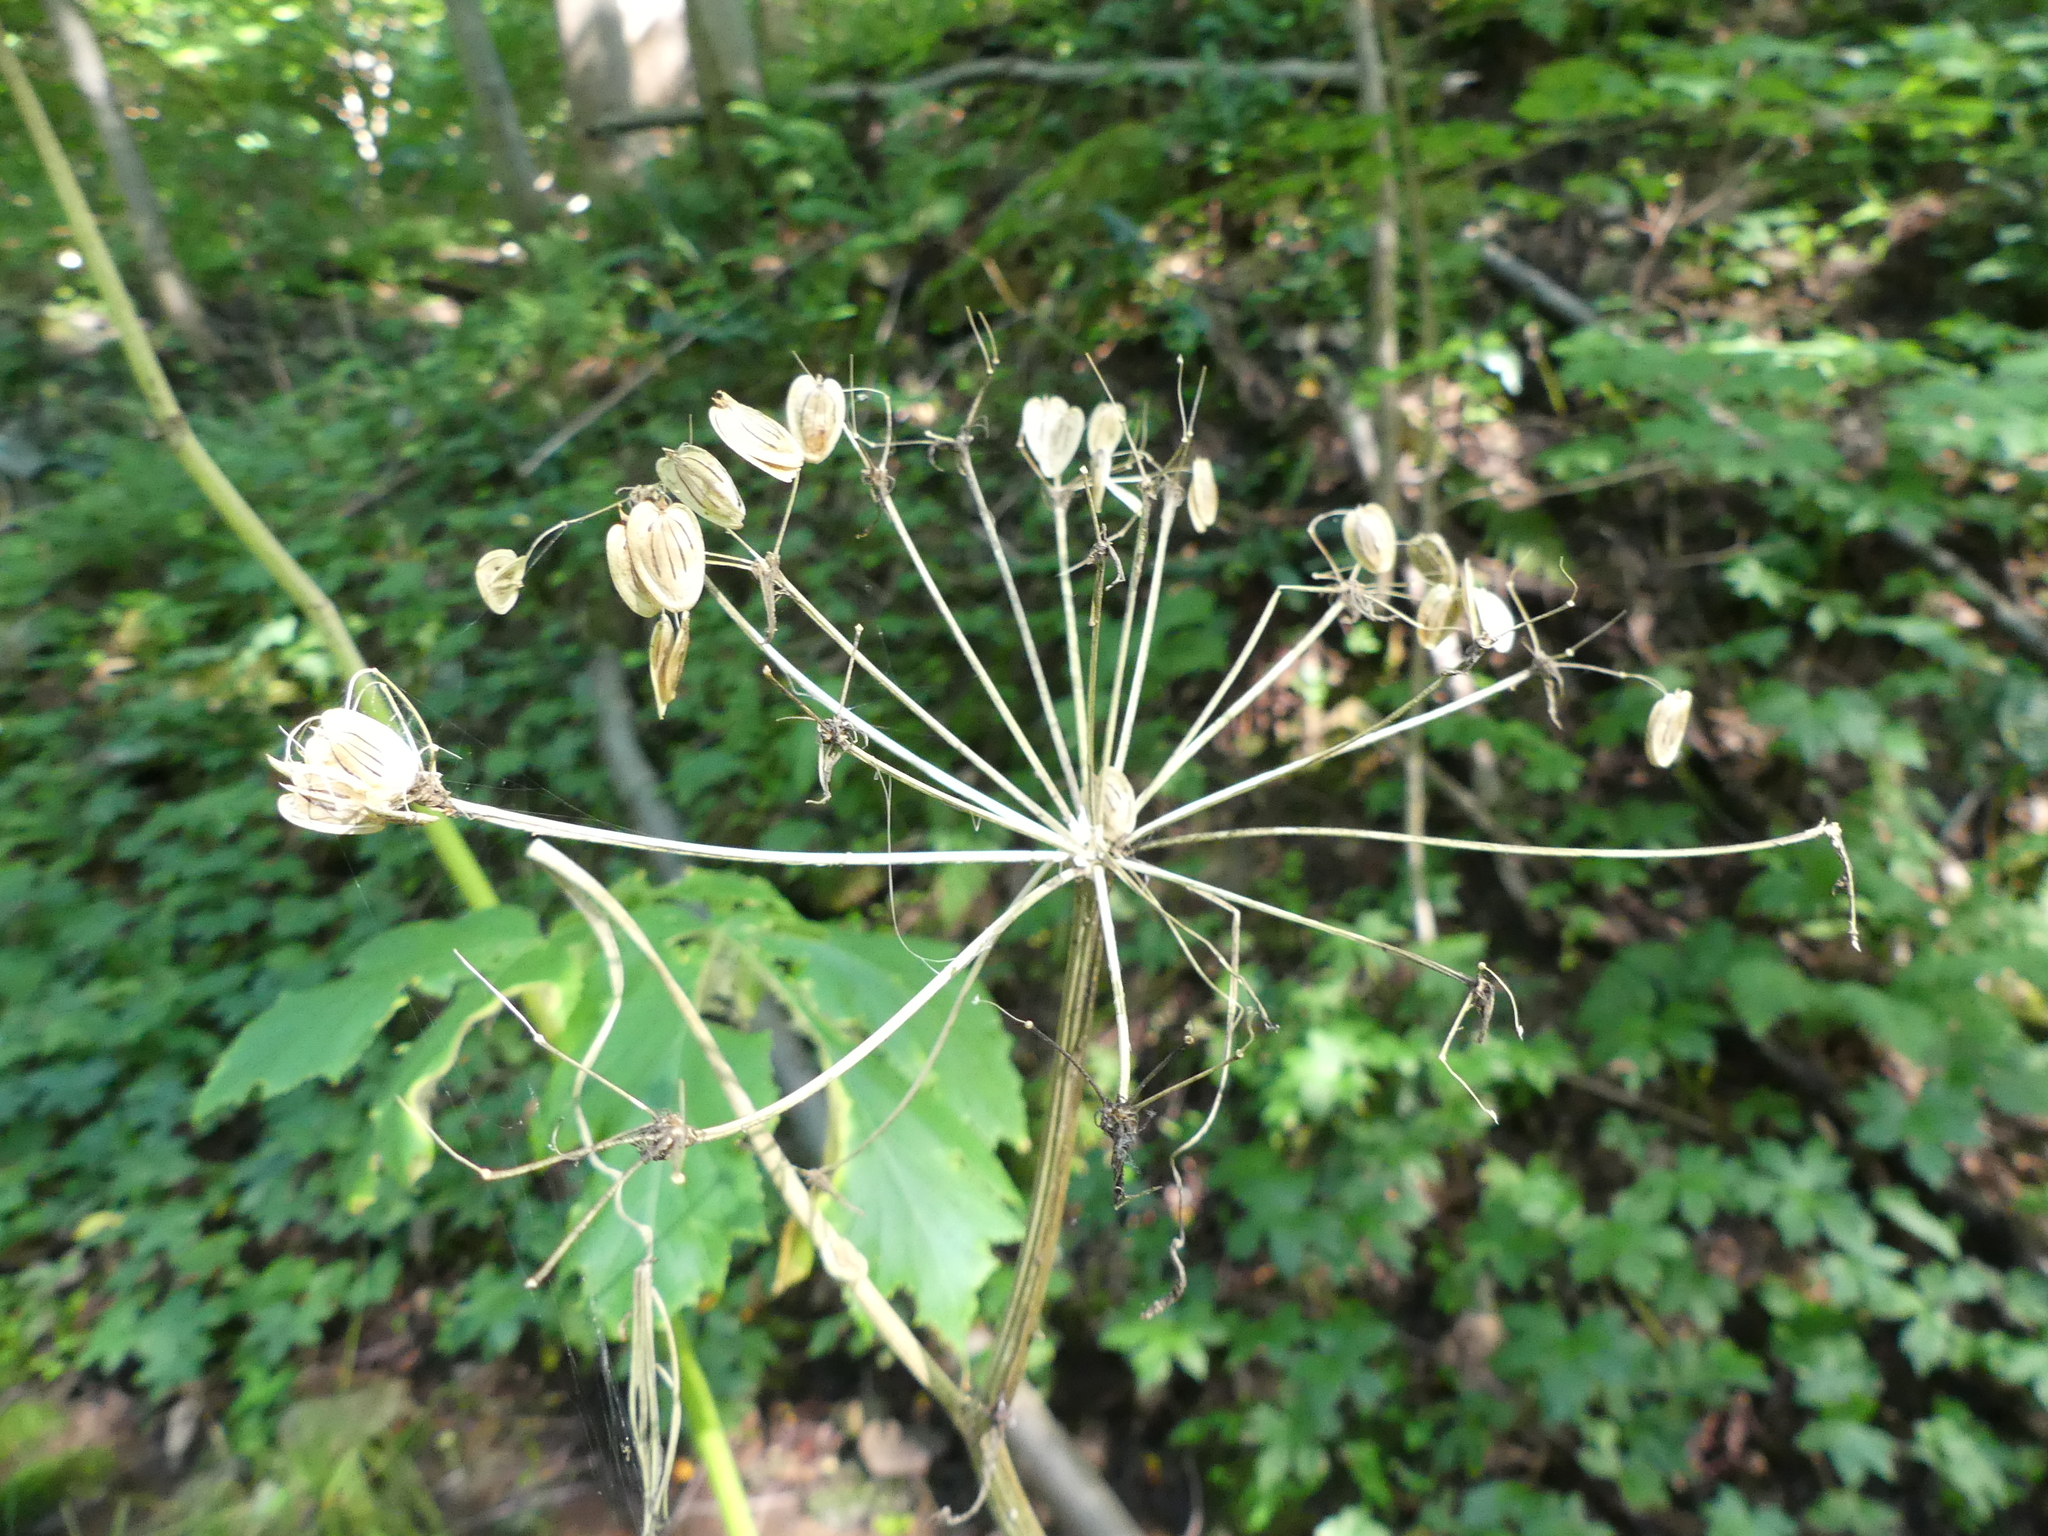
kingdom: Plantae
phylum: Tracheophyta
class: Magnoliopsida
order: Apiales
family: Apiaceae
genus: Heracleum
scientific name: Heracleum maximum
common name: American cow parsnip
